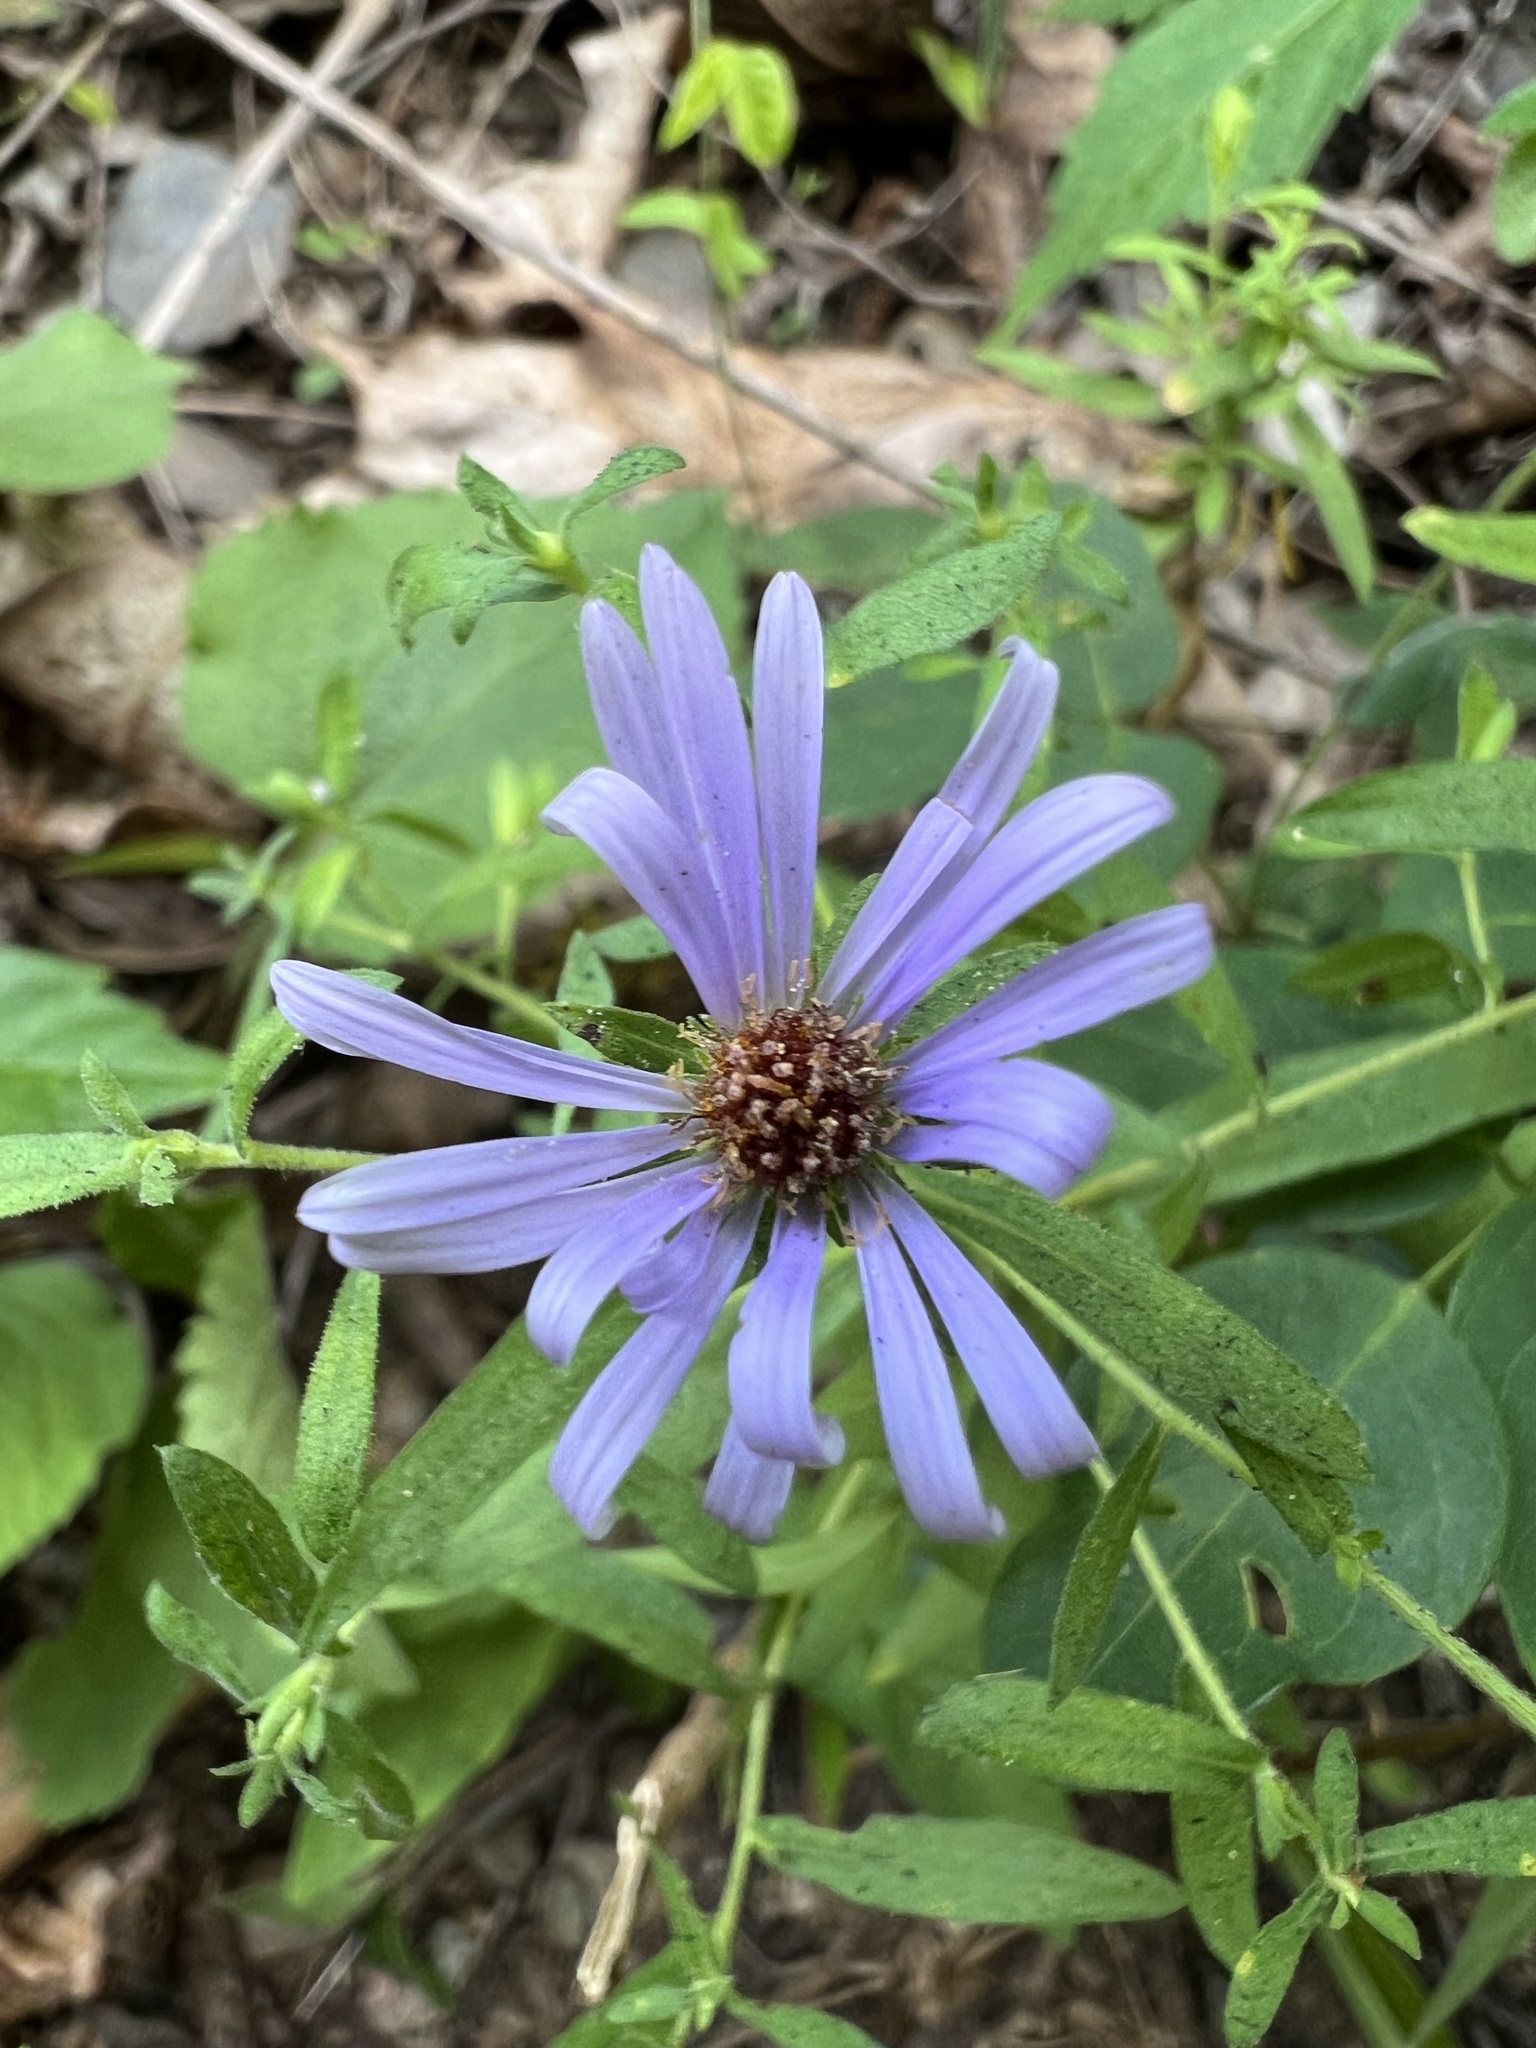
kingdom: Plantae
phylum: Tracheophyta
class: Magnoliopsida
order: Asterales
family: Asteraceae
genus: Symphyotrichum
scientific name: Symphyotrichum oblongifolium
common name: Aromatic aster
